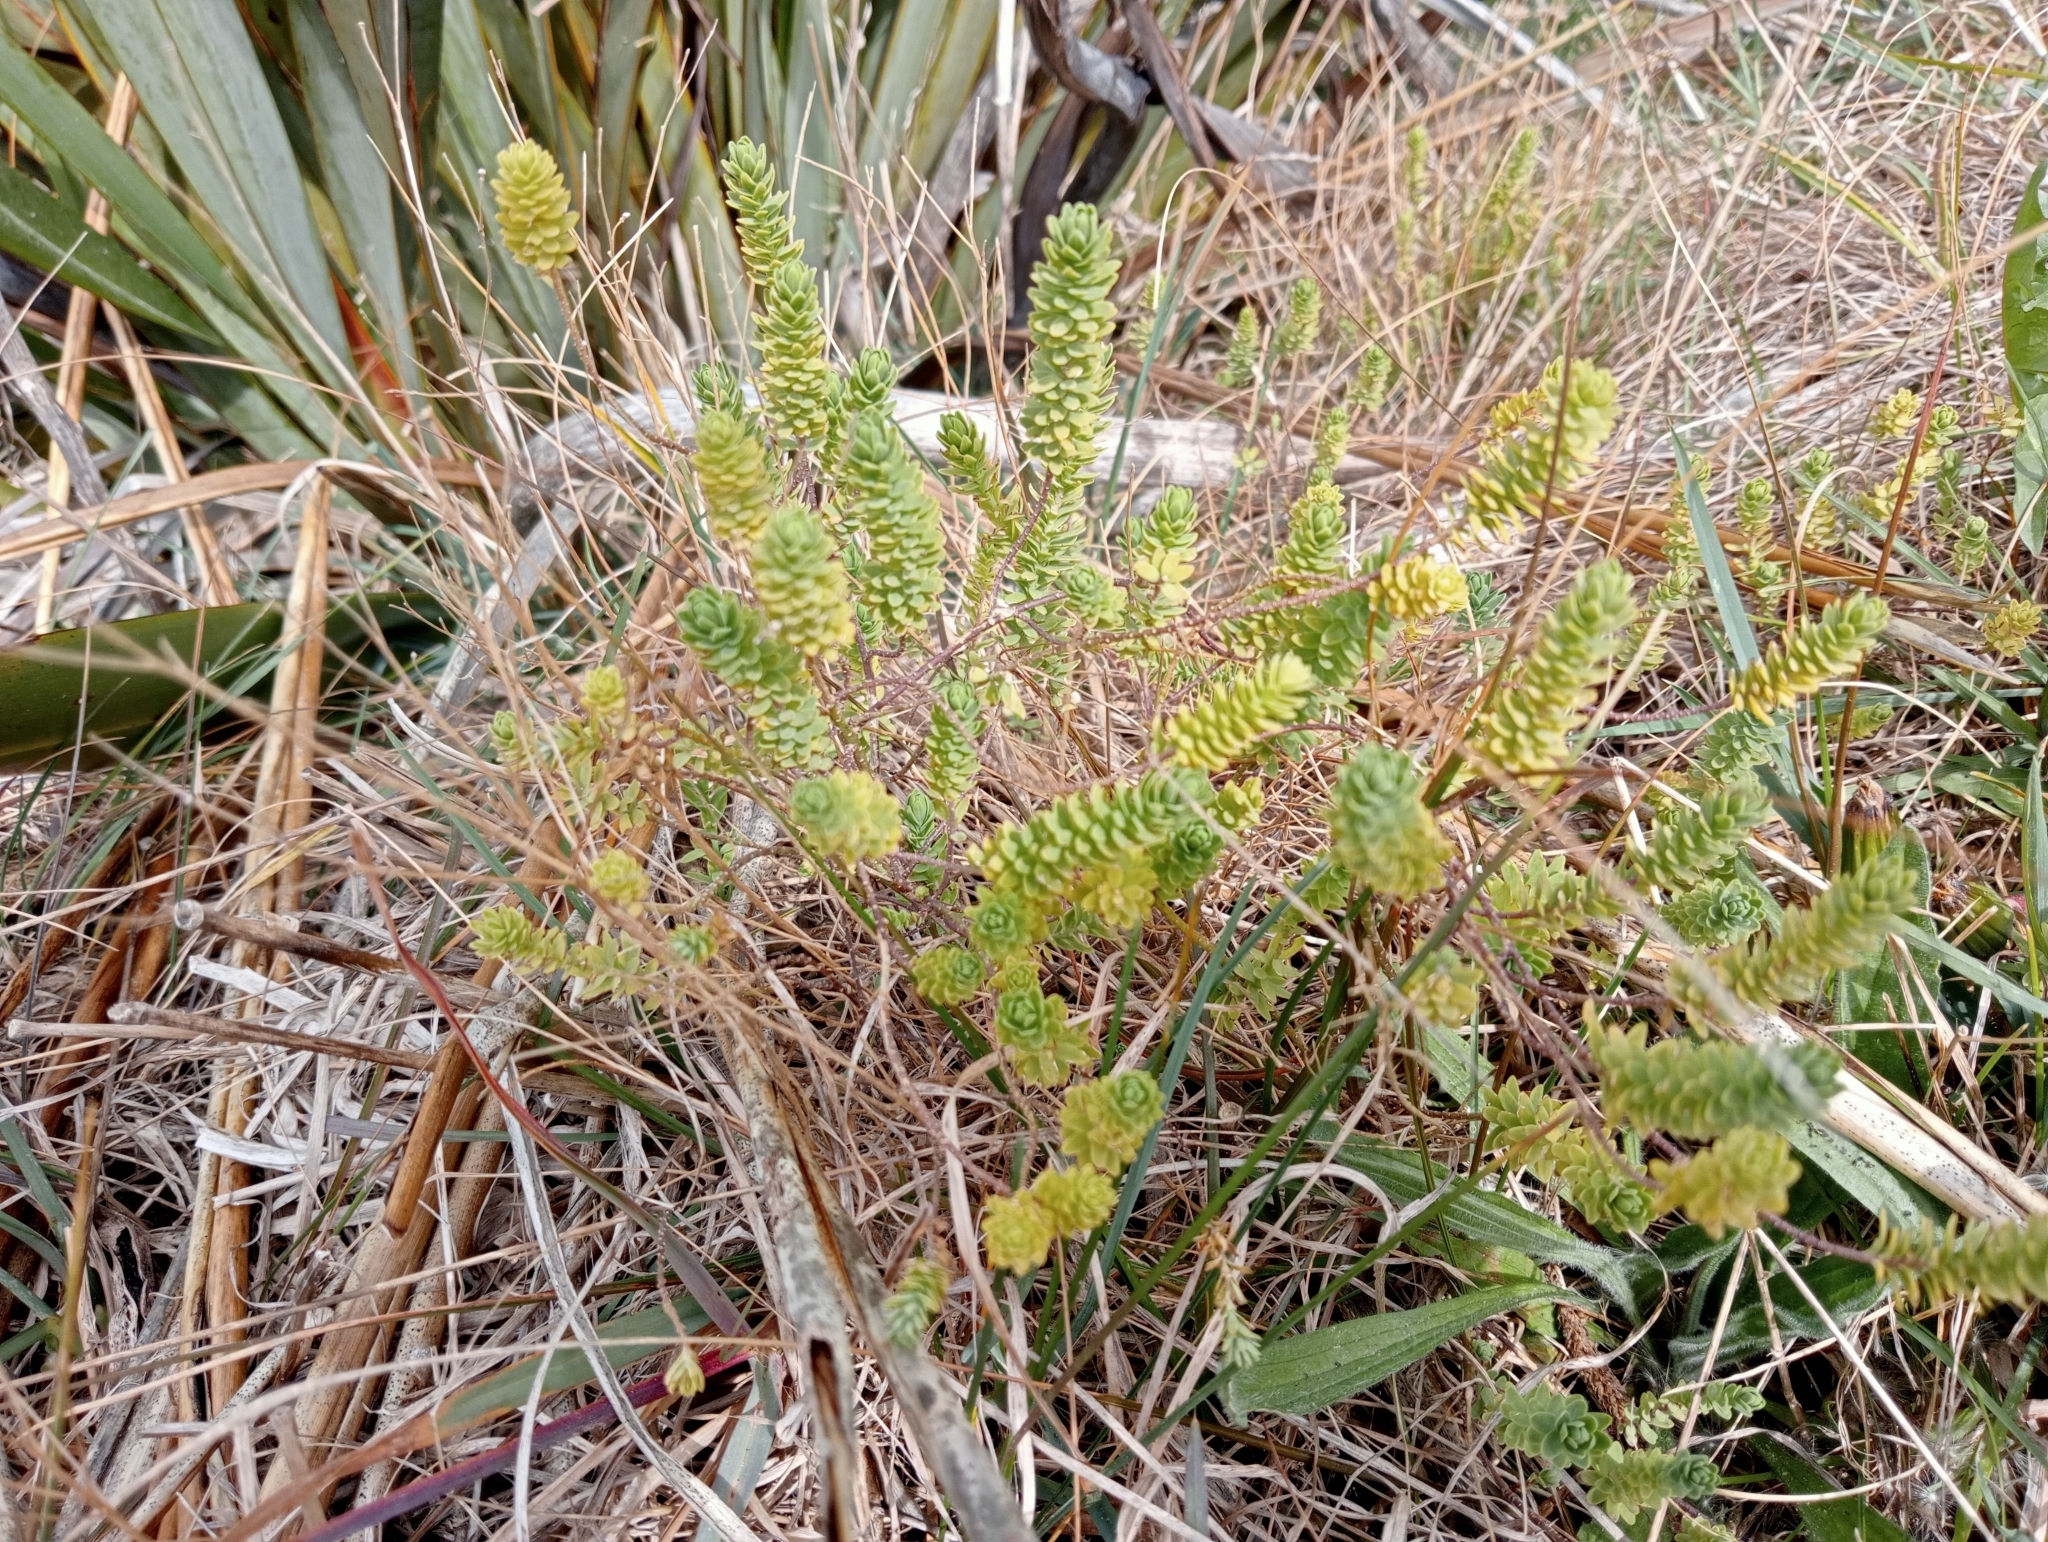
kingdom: Plantae
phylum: Tracheophyta
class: Magnoliopsida
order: Malpighiales
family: Linaceae
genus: Linum
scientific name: Linum monogynum
